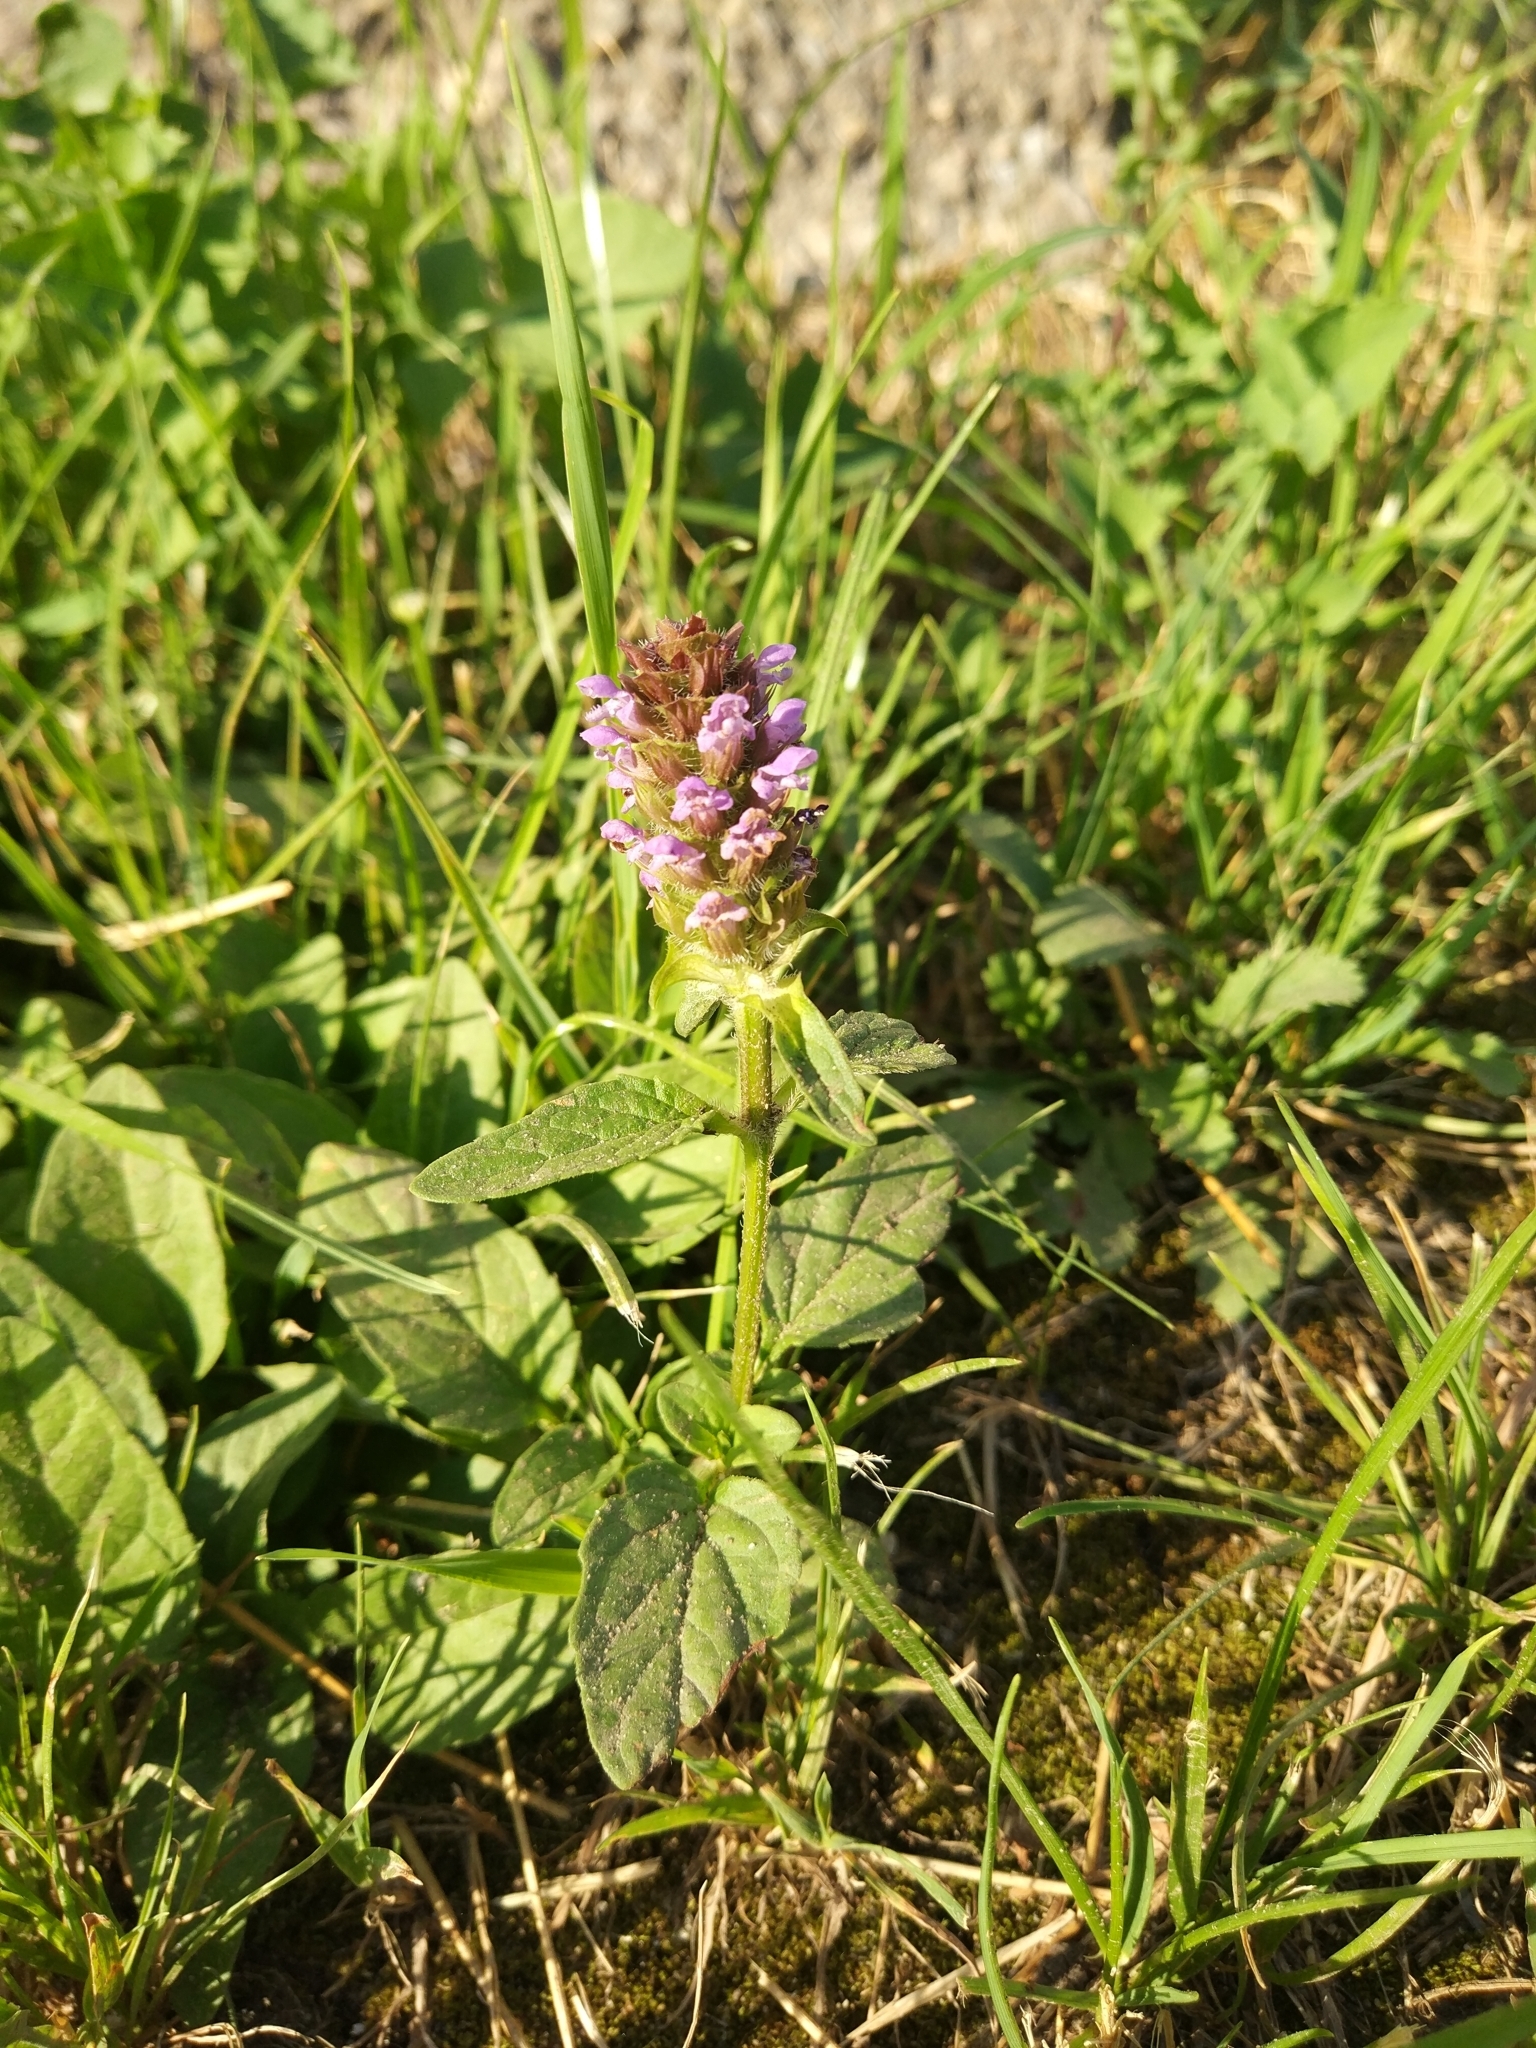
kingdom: Plantae
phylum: Tracheophyta
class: Magnoliopsida
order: Lamiales
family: Lamiaceae
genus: Prunella
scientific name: Prunella vulgaris
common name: Heal-all
